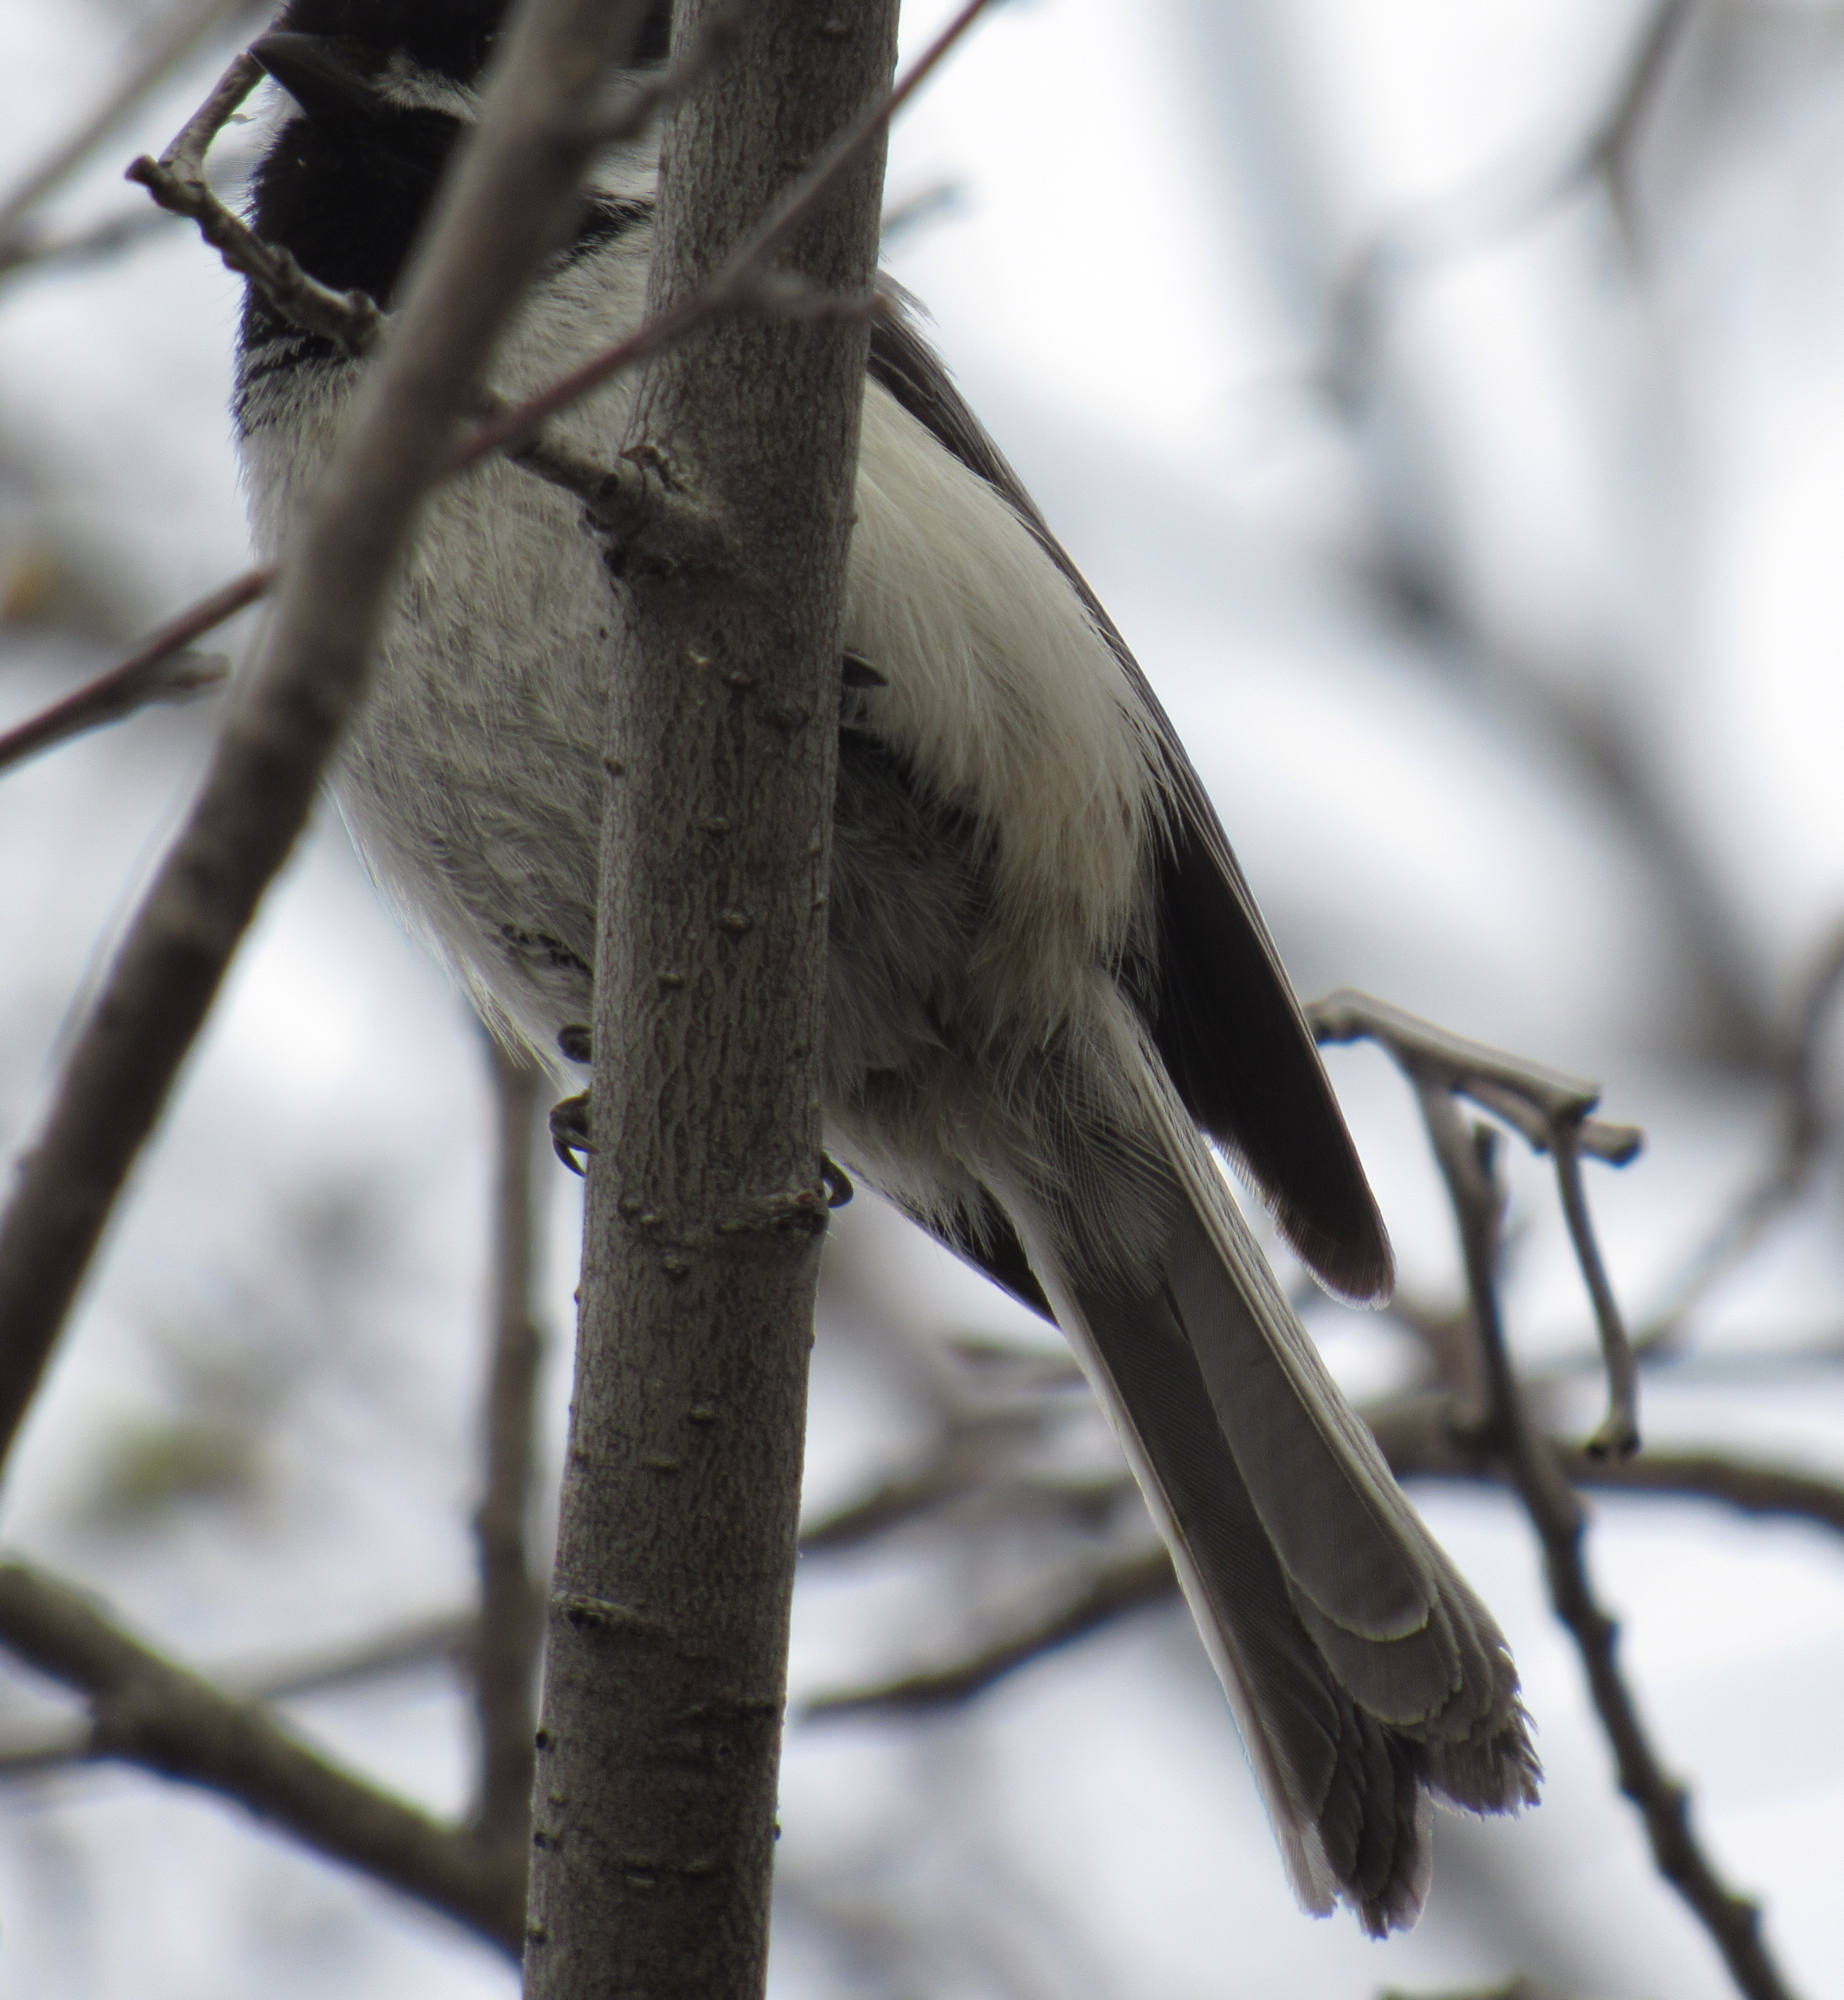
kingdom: Animalia
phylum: Chordata
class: Aves
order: Passeriformes
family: Paridae
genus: Poecile
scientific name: Poecile atricapillus
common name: Black-capped chickadee
